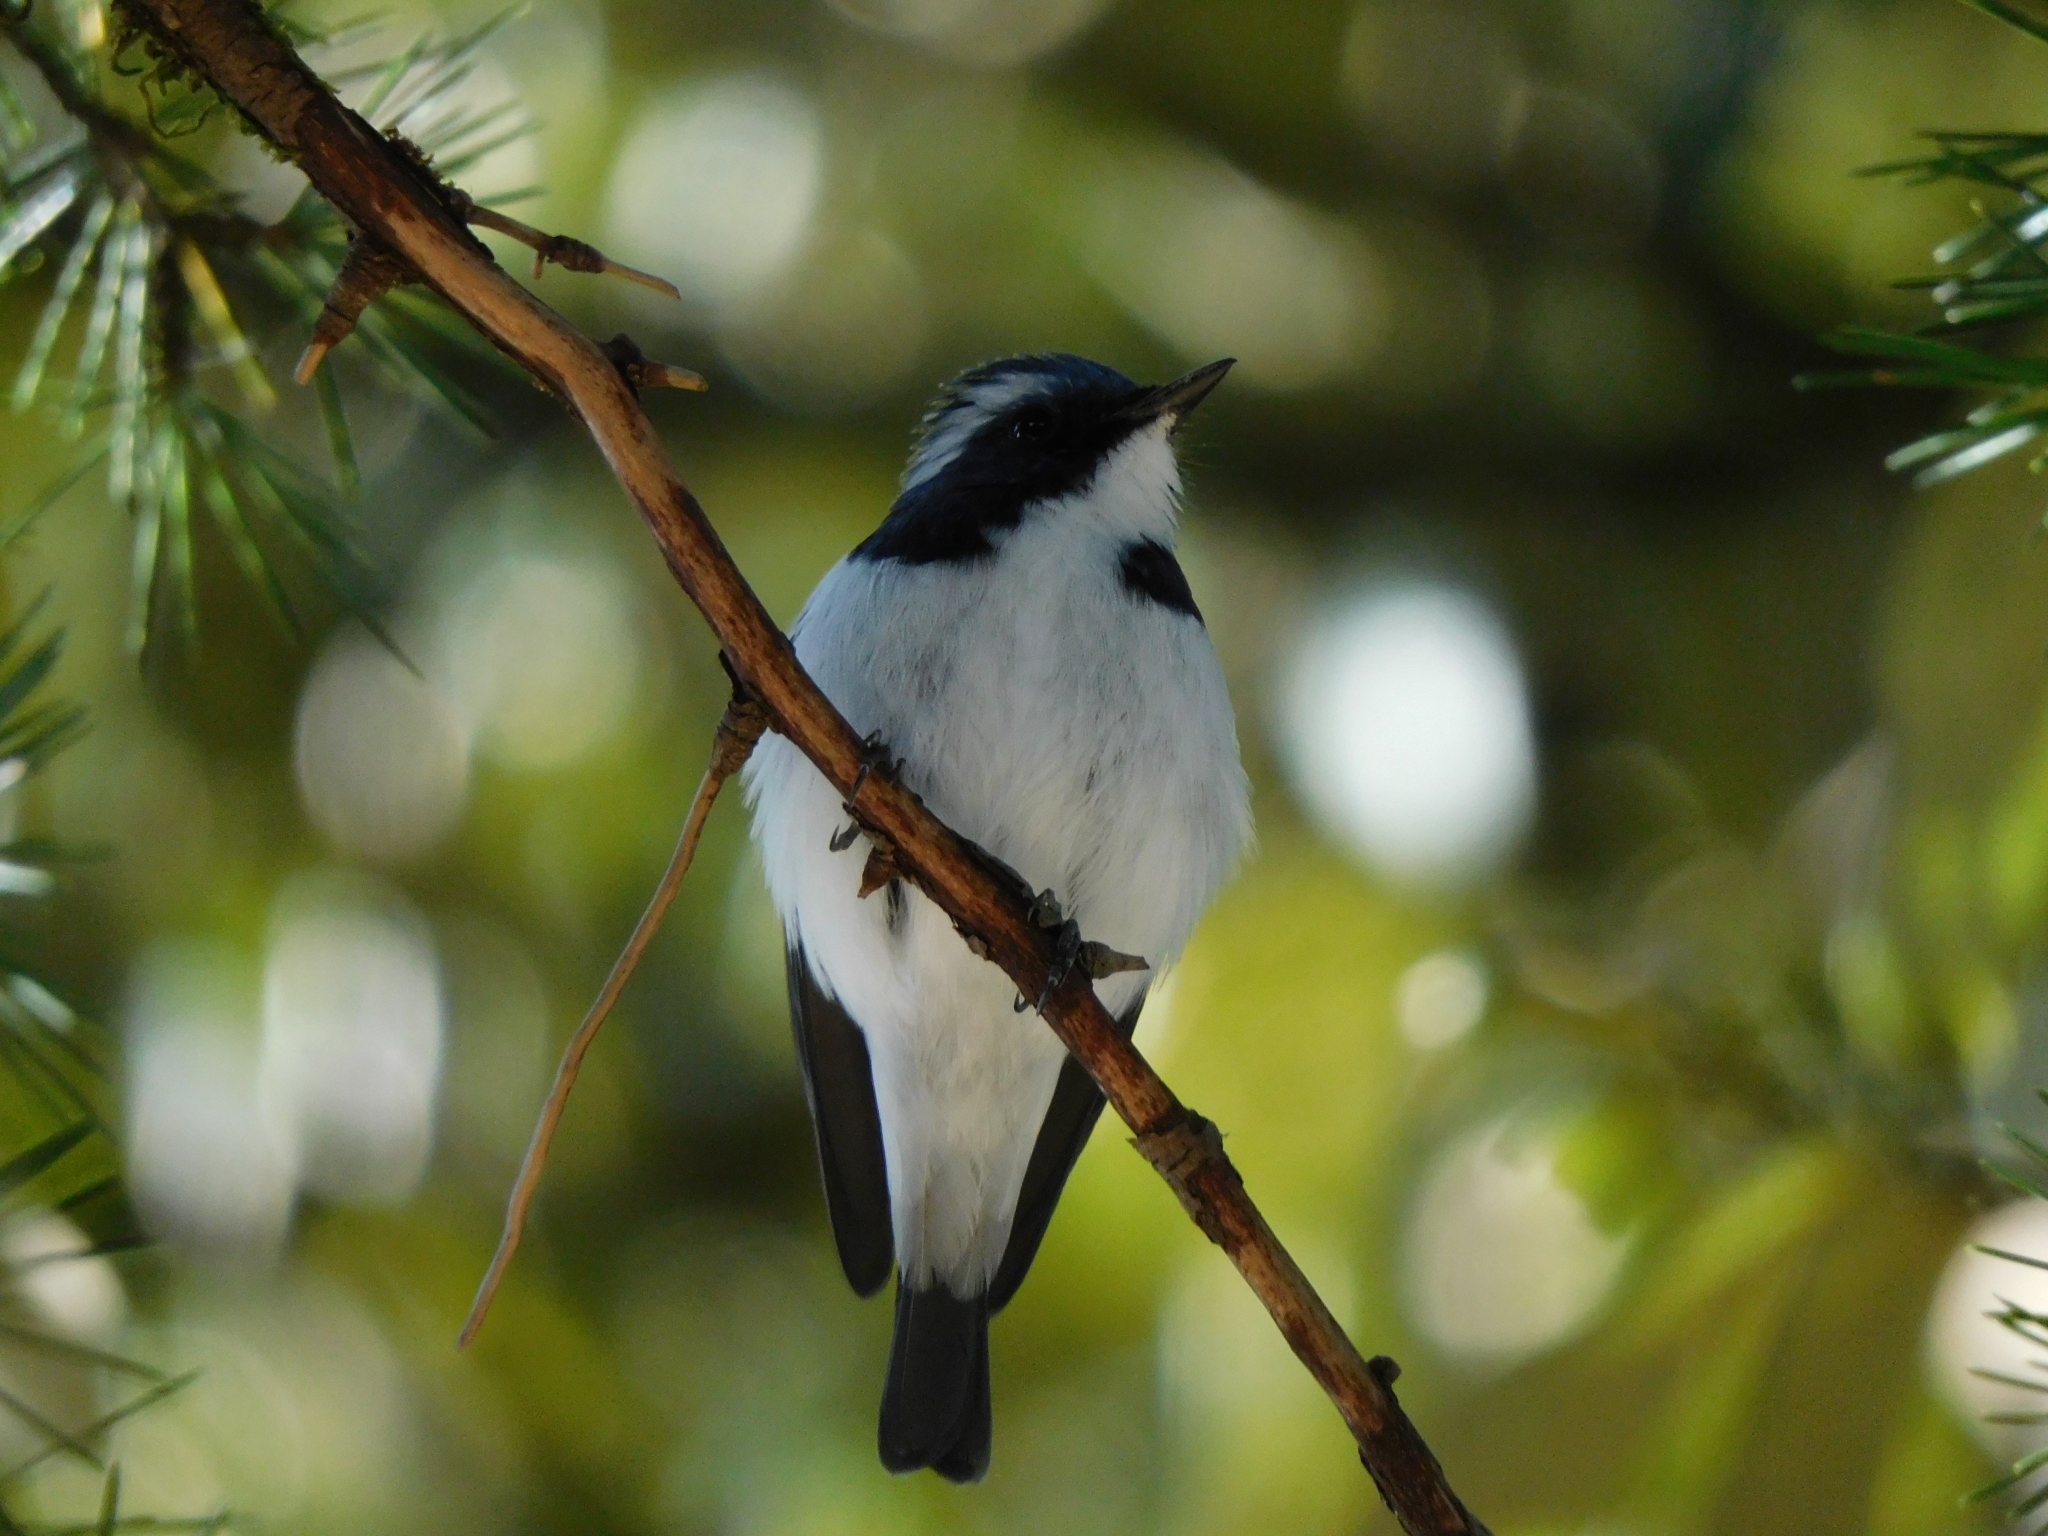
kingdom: Animalia
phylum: Chordata
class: Aves
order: Passeriformes
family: Muscicapidae
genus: Ficedula
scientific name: Ficedula superciliaris
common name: Ultramarine flycatcher
